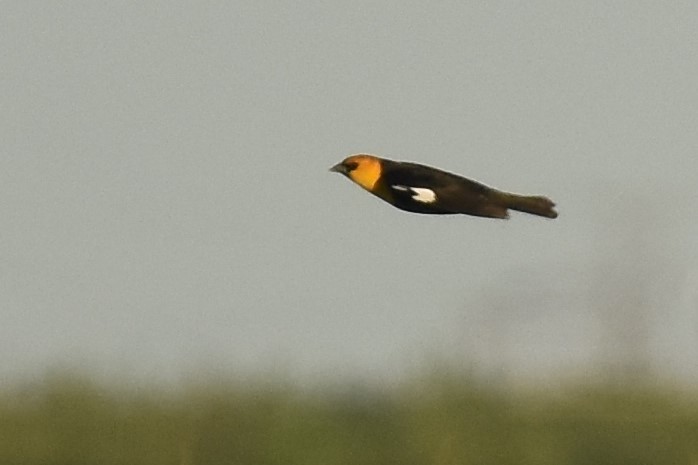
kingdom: Animalia
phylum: Chordata
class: Aves
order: Passeriformes
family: Icteridae
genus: Xanthocephalus
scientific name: Xanthocephalus xanthocephalus
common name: Yellow-headed blackbird
